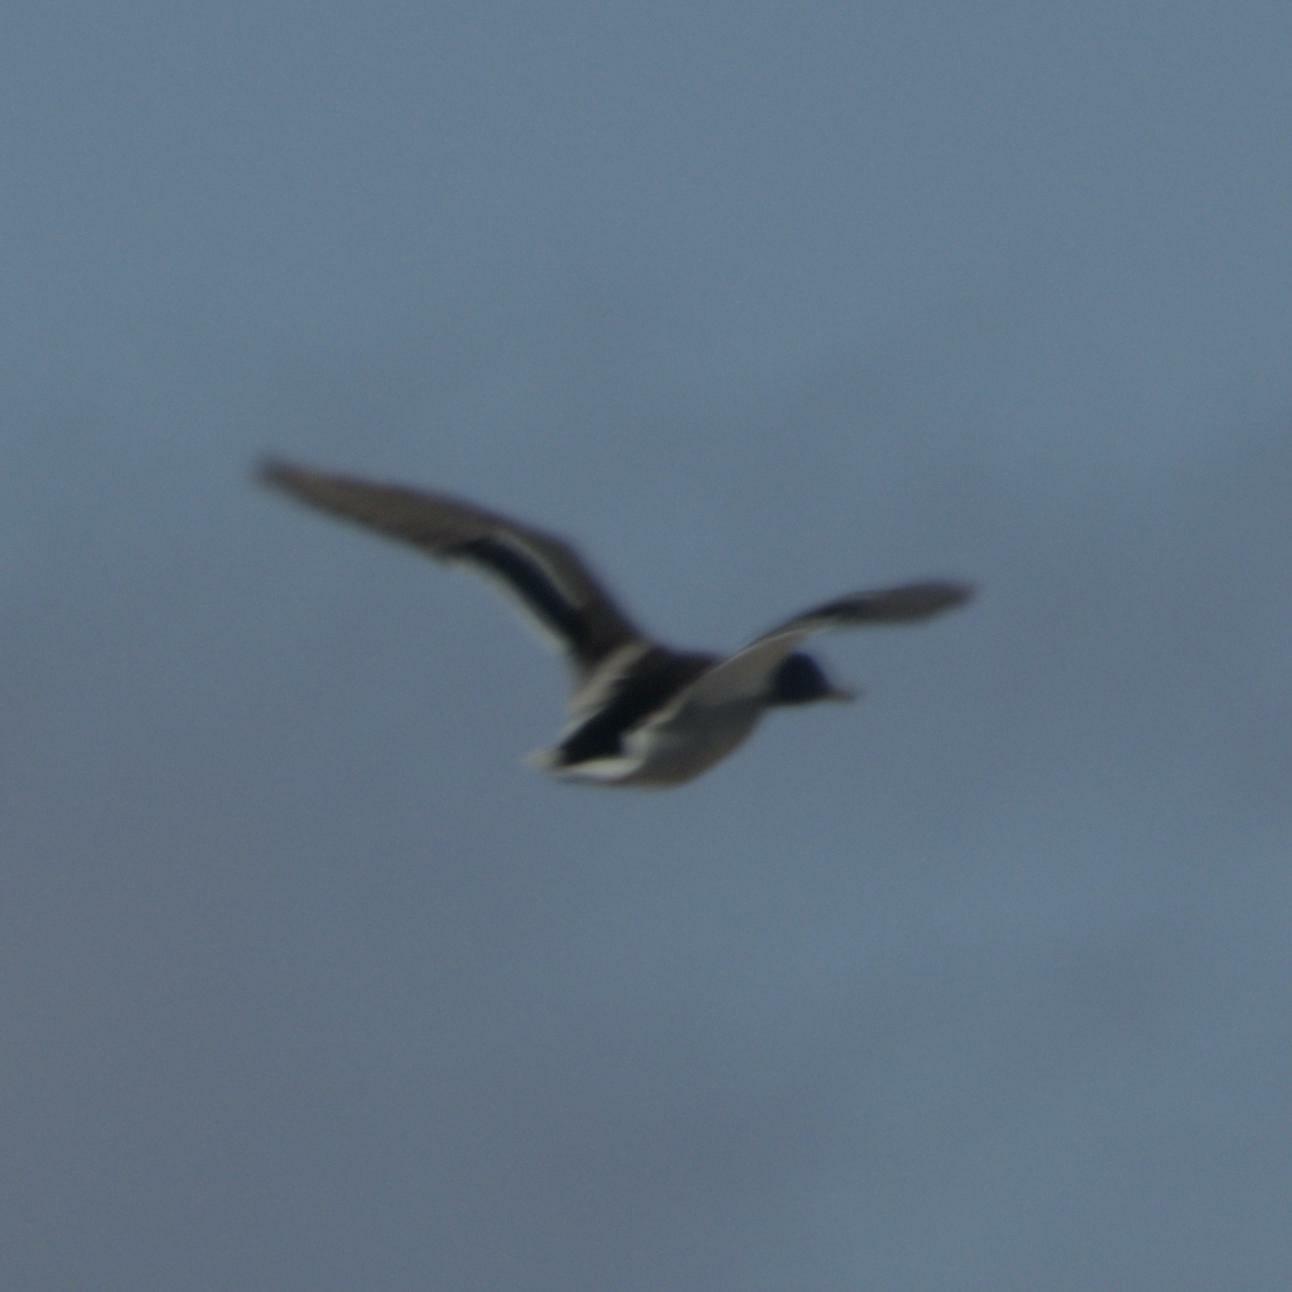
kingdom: Animalia
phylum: Chordata
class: Aves
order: Anseriformes
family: Anatidae
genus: Anas
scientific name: Anas platyrhynchos
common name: Mallard
